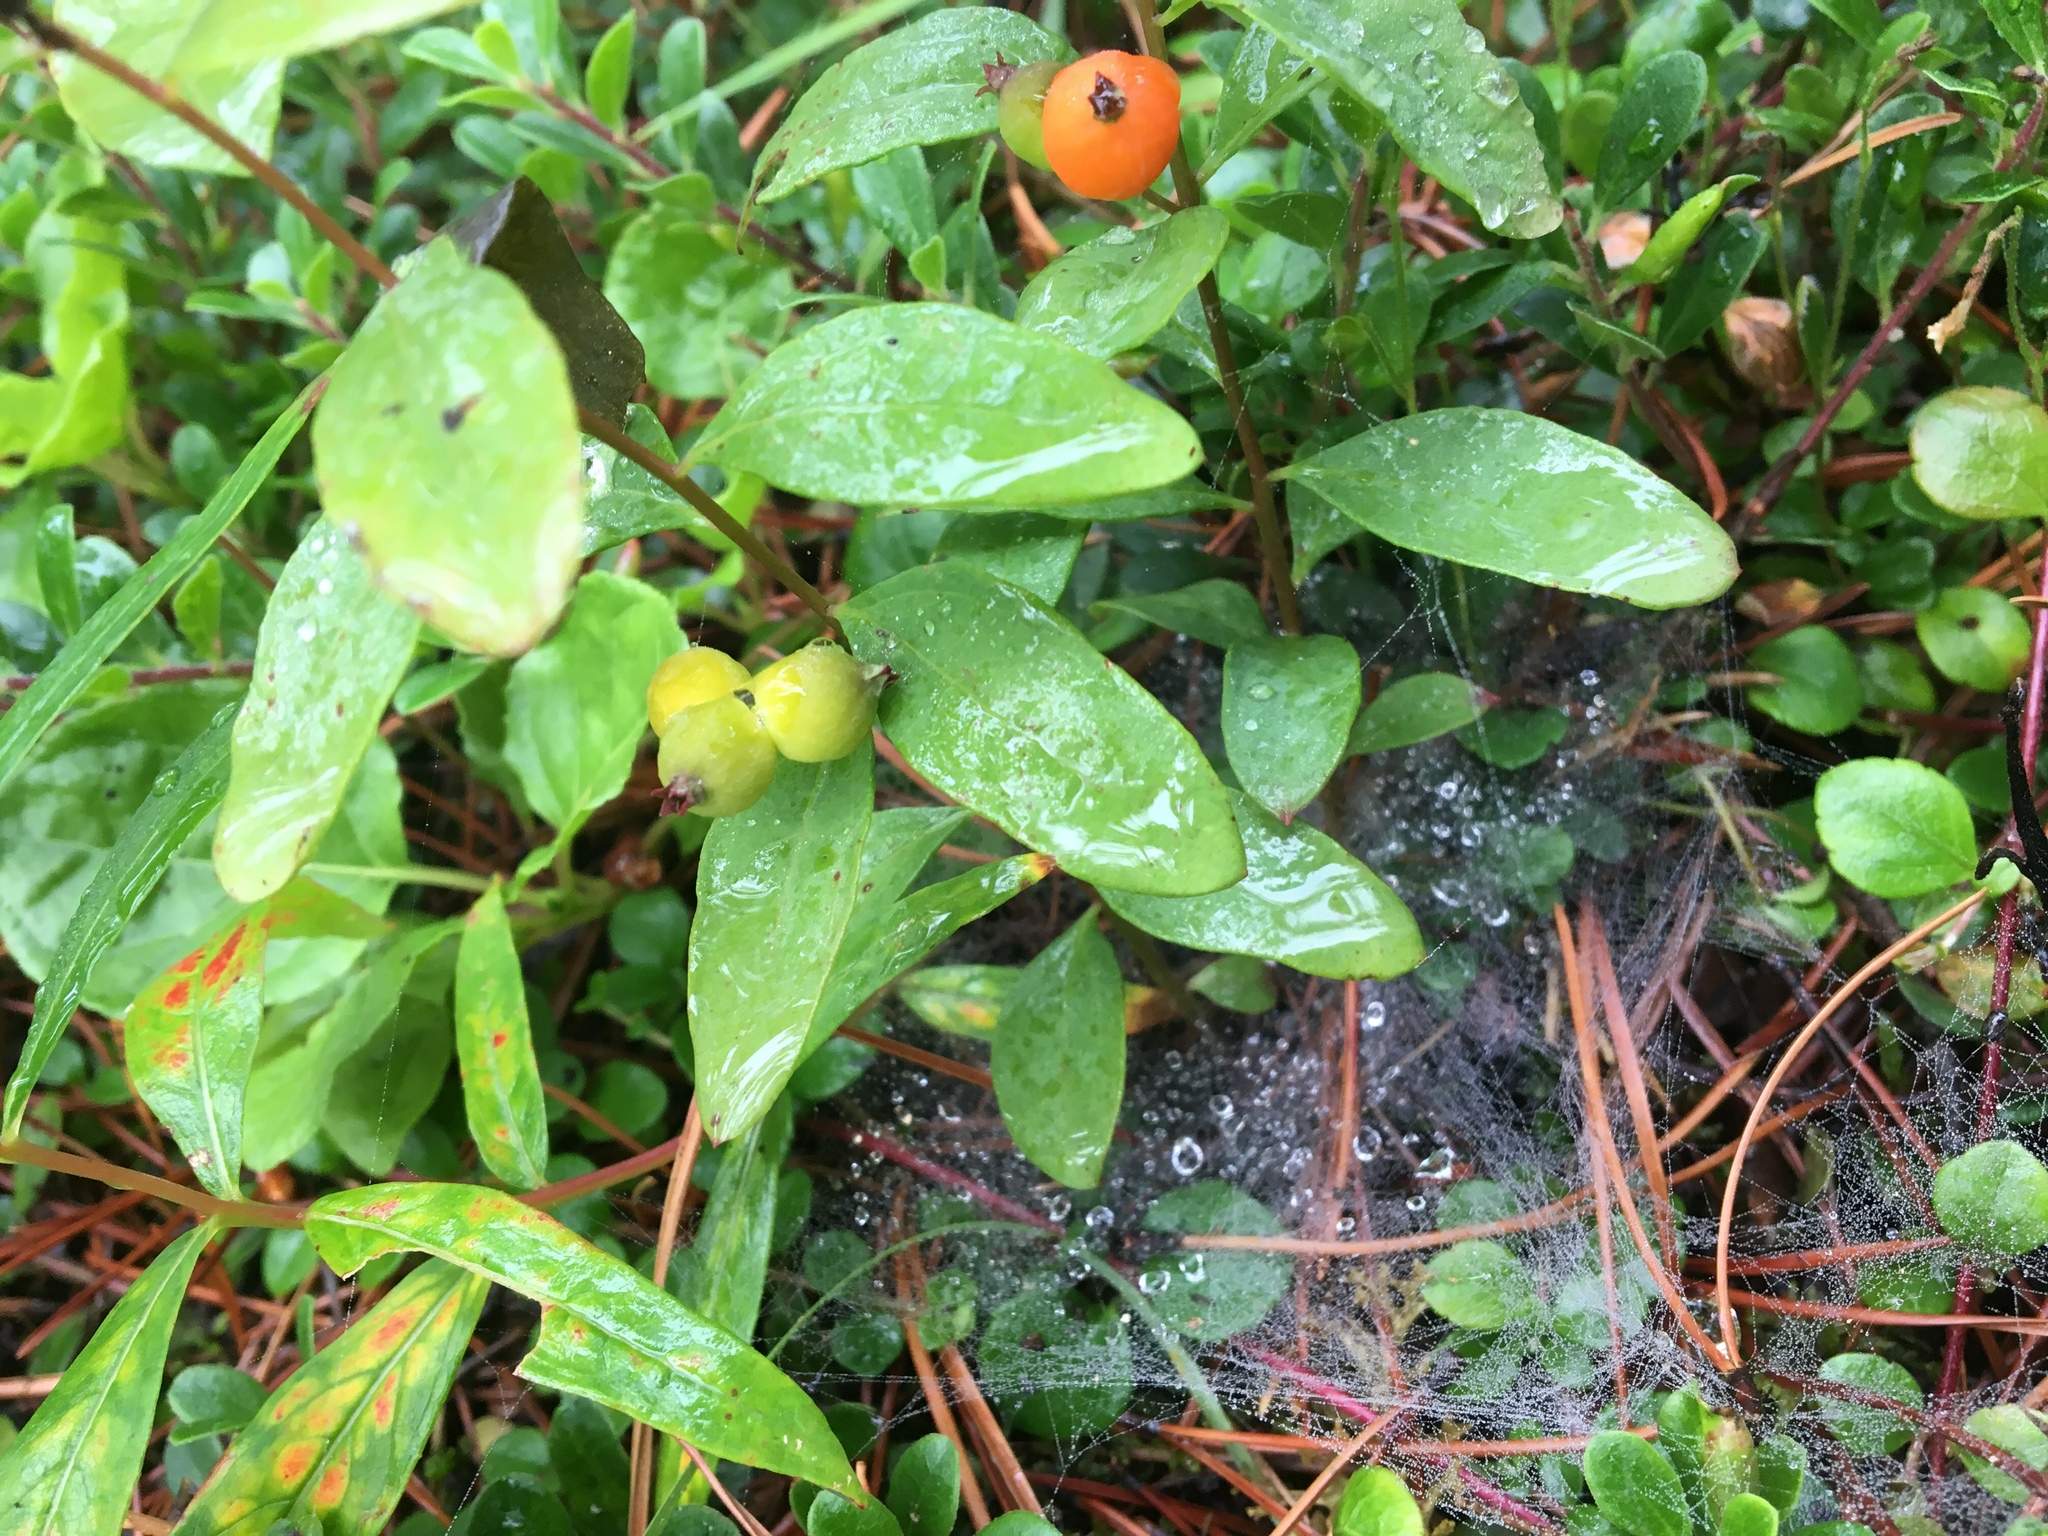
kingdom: Plantae
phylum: Tracheophyta
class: Magnoliopsida
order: Santalales
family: Comandraceae
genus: Geocaulon
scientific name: Geocaulon lividum
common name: Earthberry
